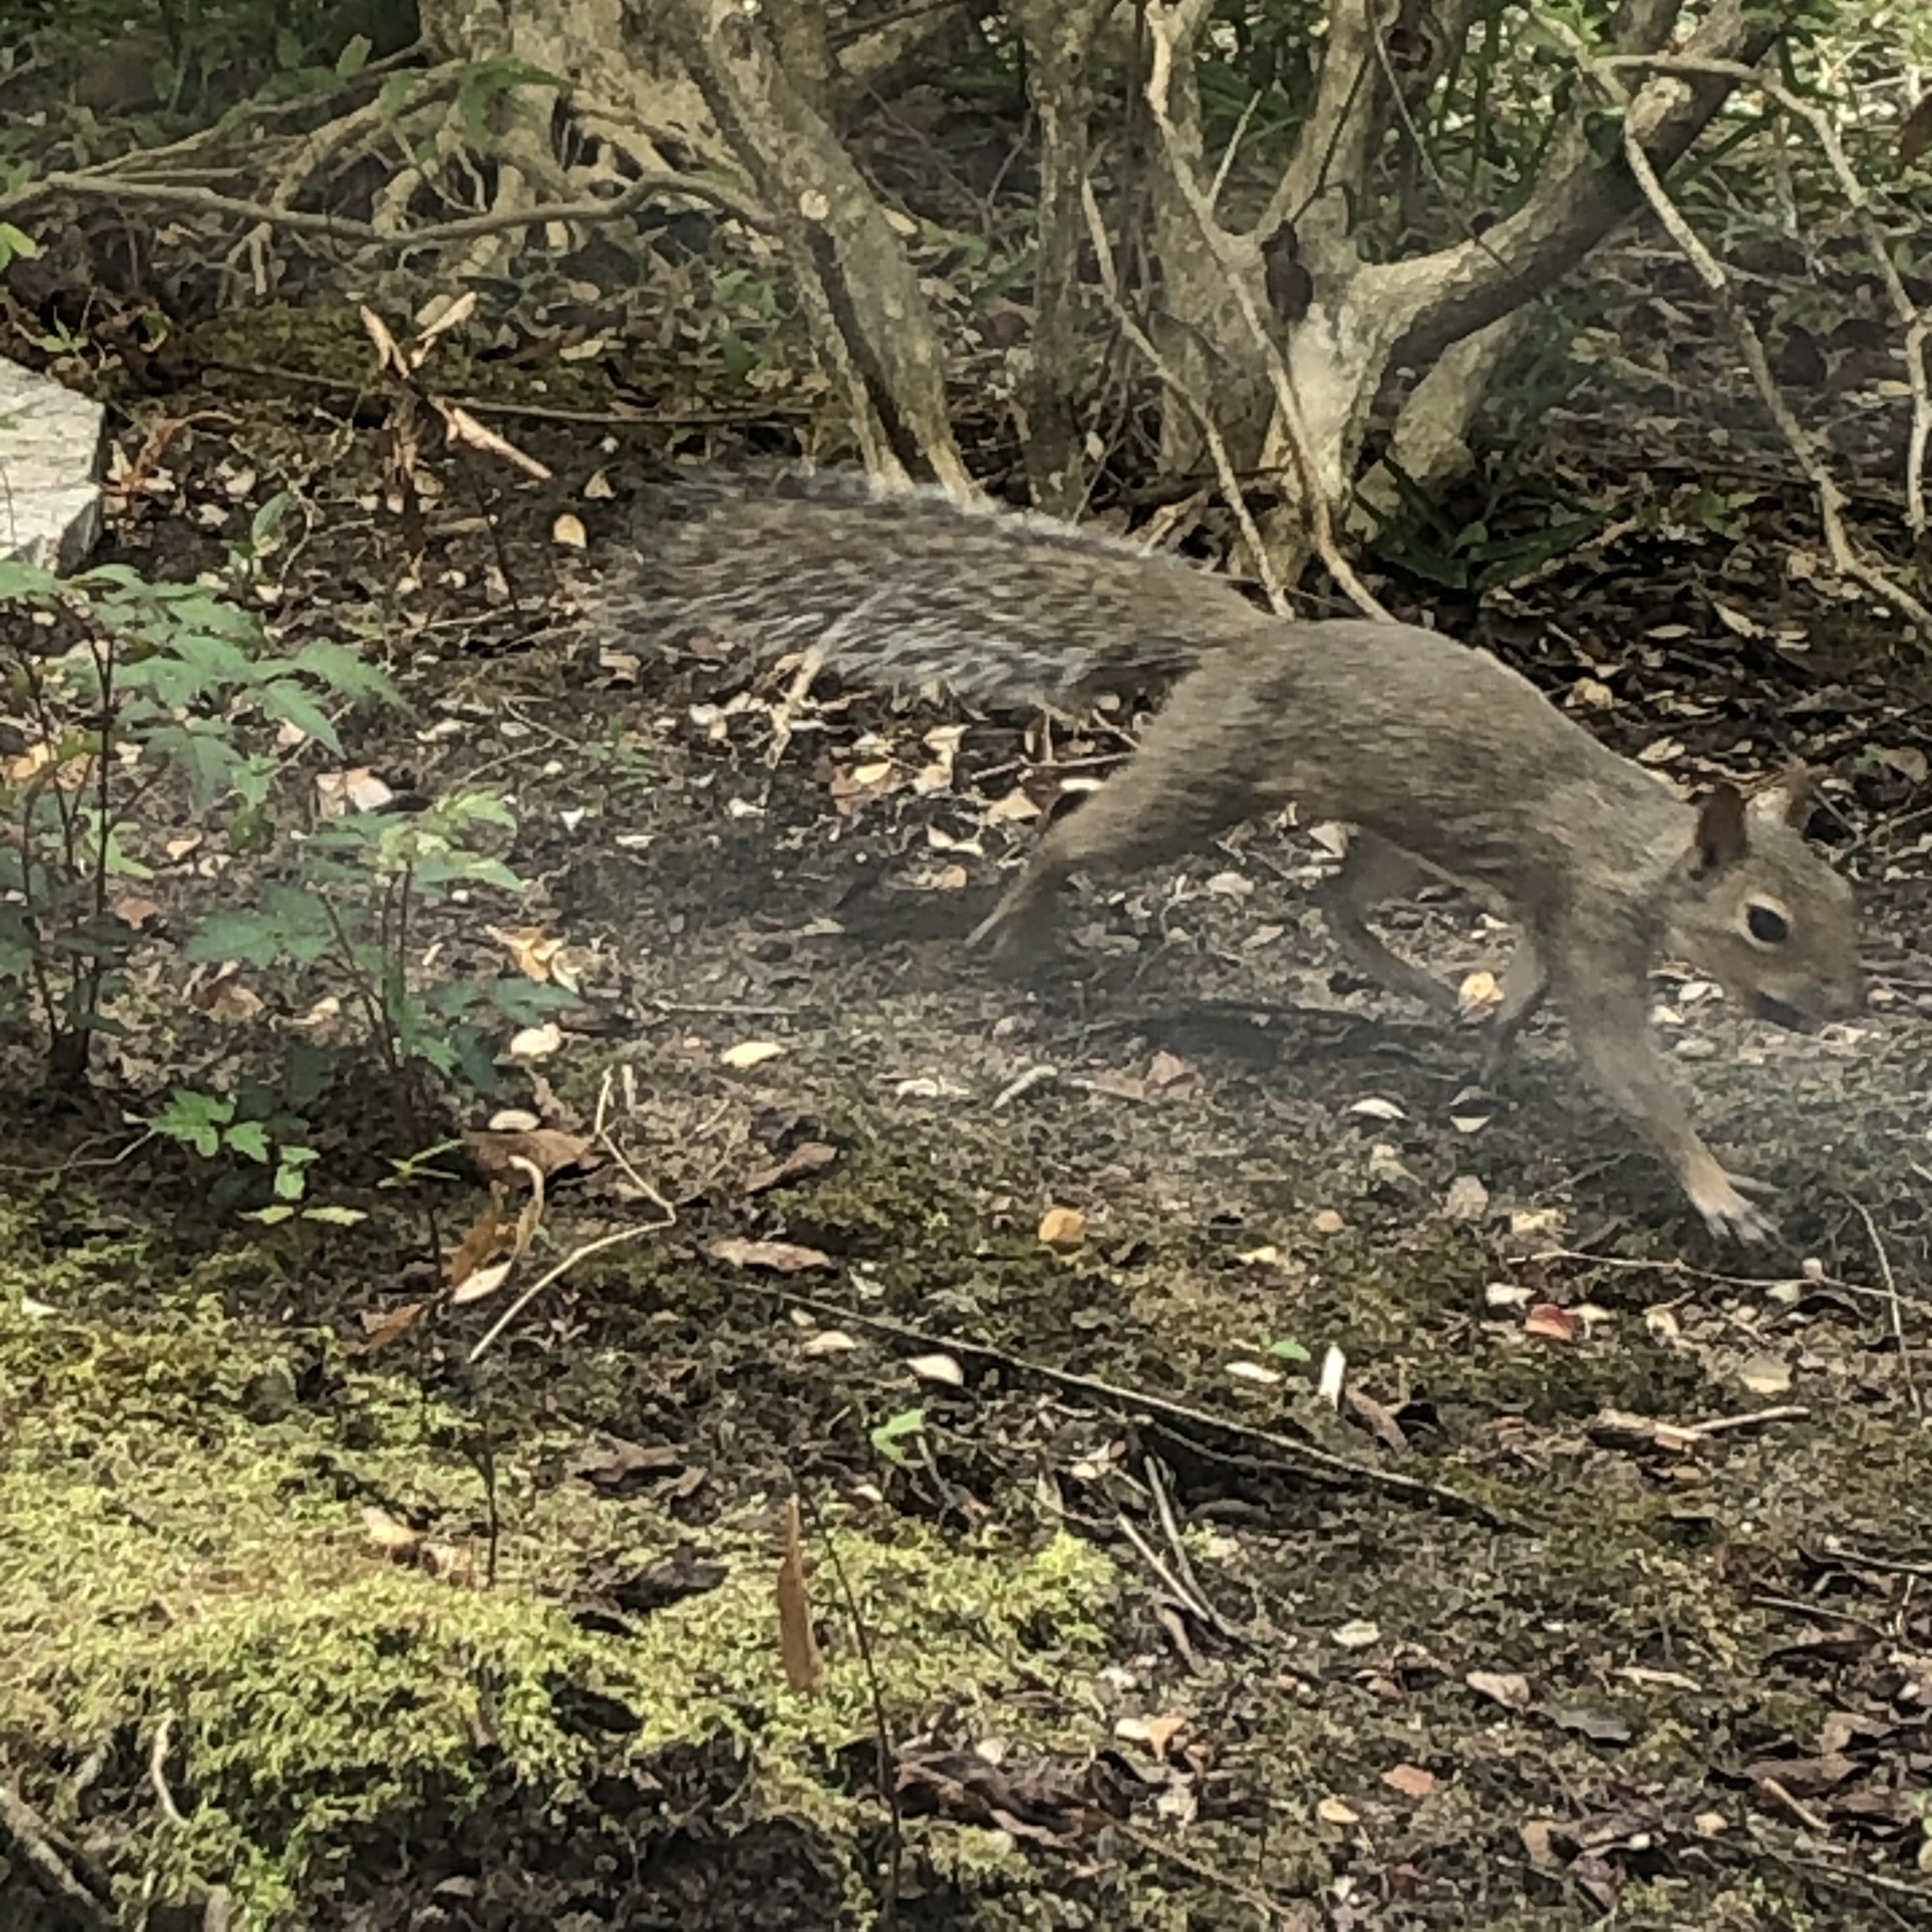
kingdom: Animalia
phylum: Chordata
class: Mammalia
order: Rodentia
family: Sciuridae
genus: Sciurus
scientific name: Sciurus carolinensis
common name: Eastern gray squirrel
